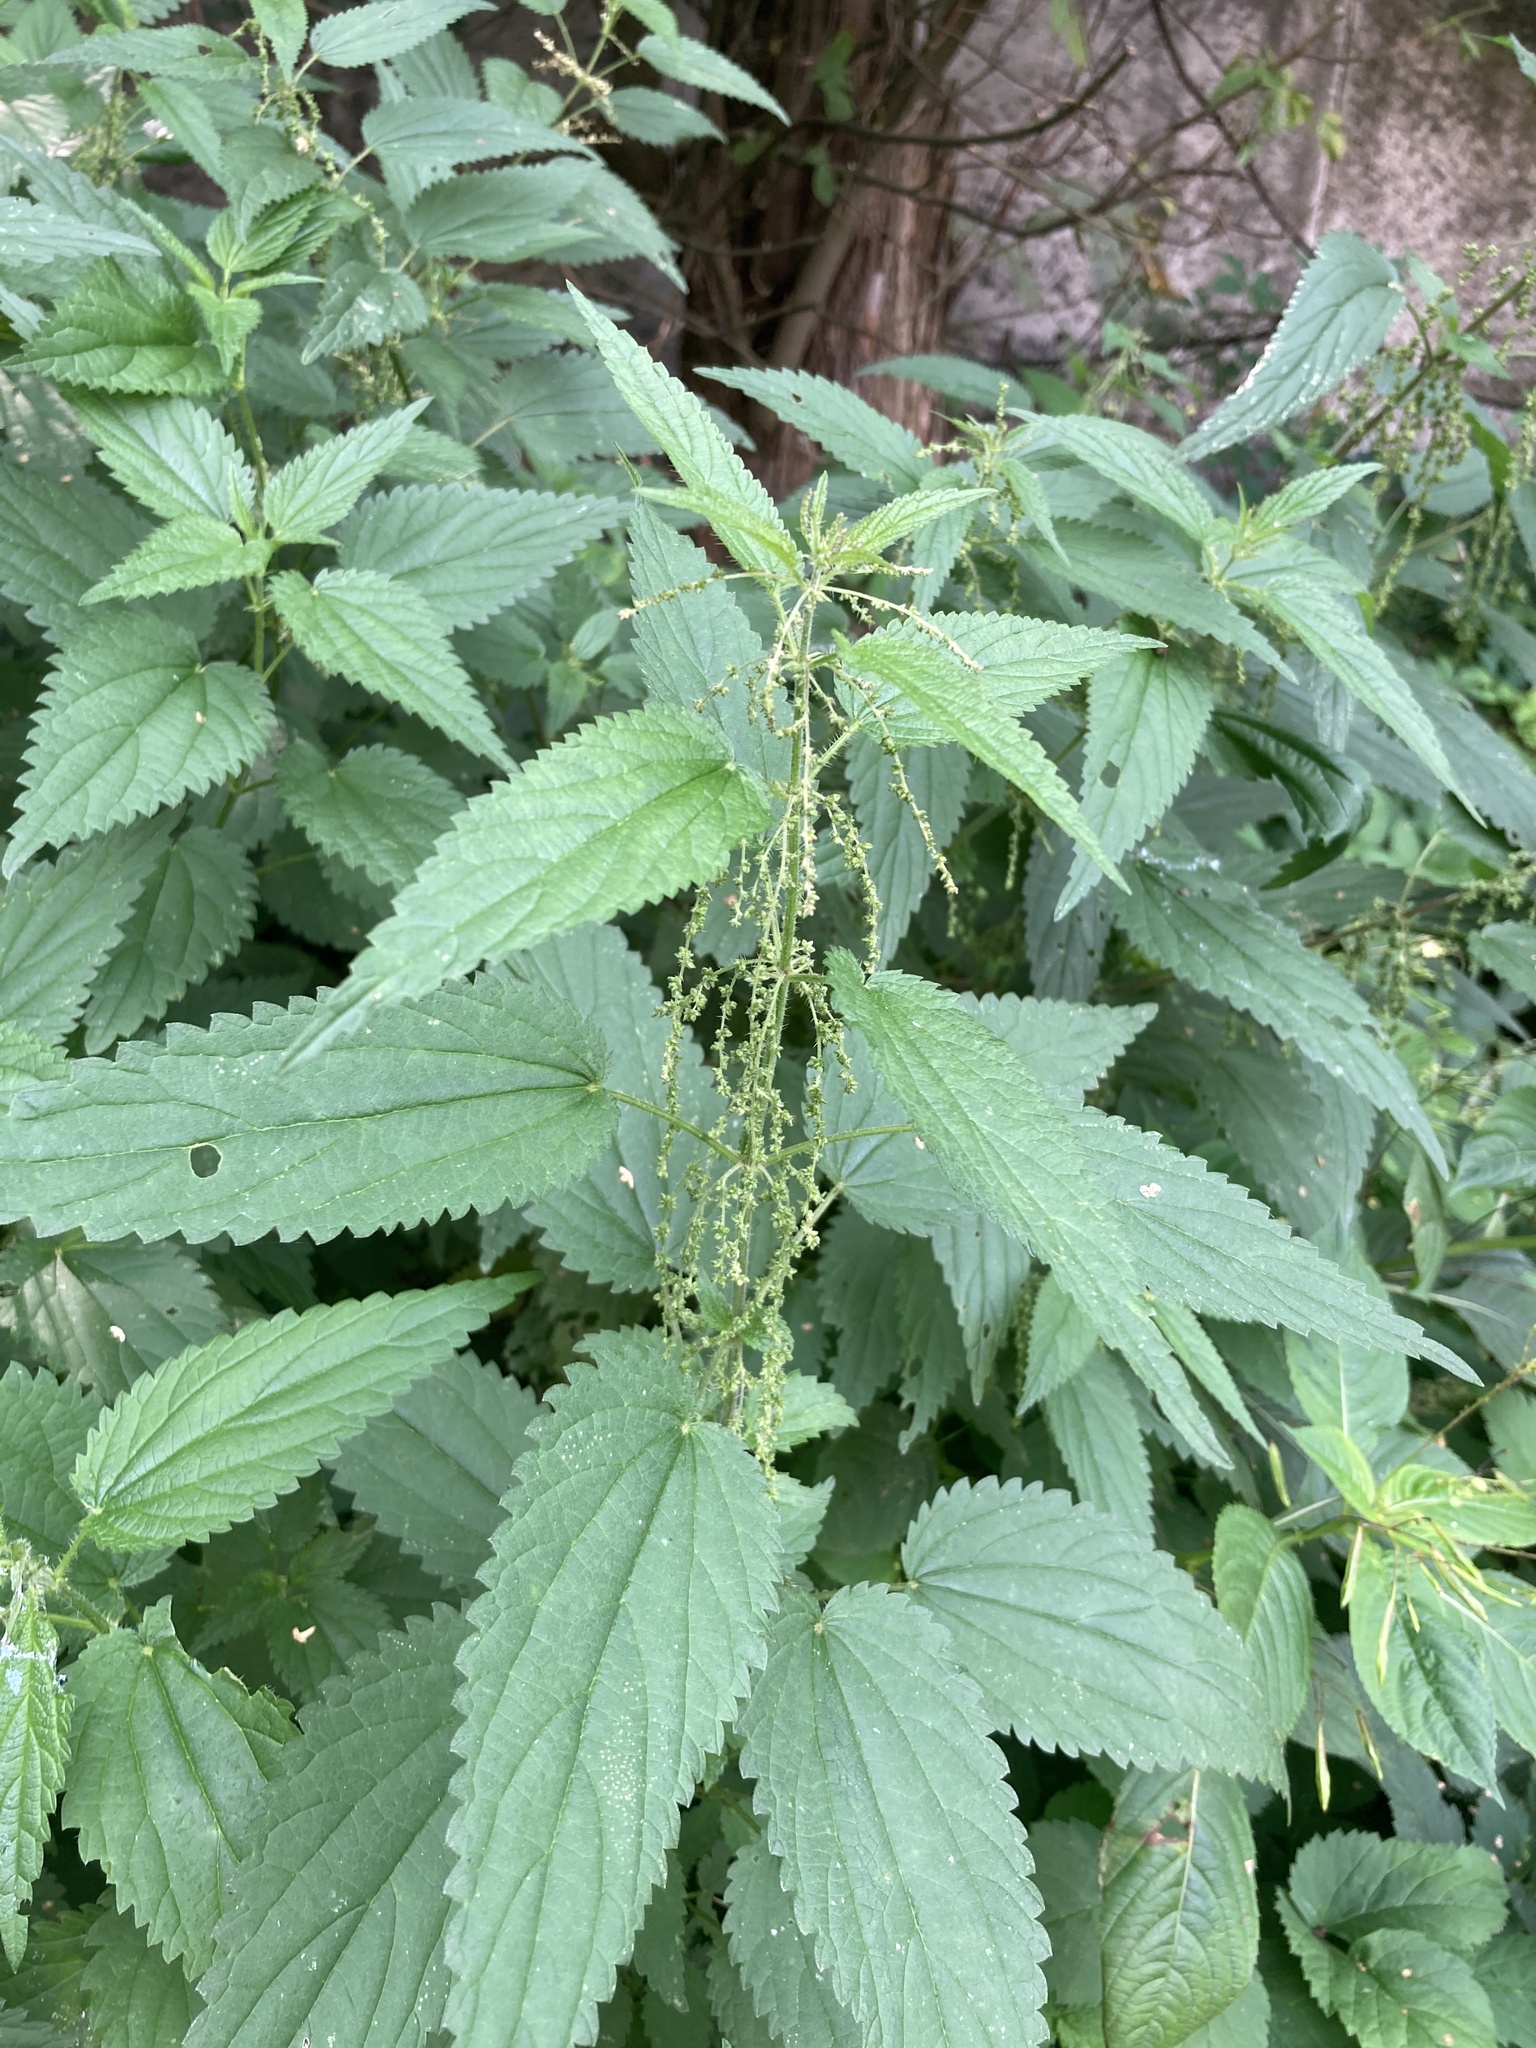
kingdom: Plantae
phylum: Tracheophyta
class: Magnoliopsida
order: Rosales
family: Urticaceae
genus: Urtica
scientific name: Urtica dioica
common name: Common nettle
